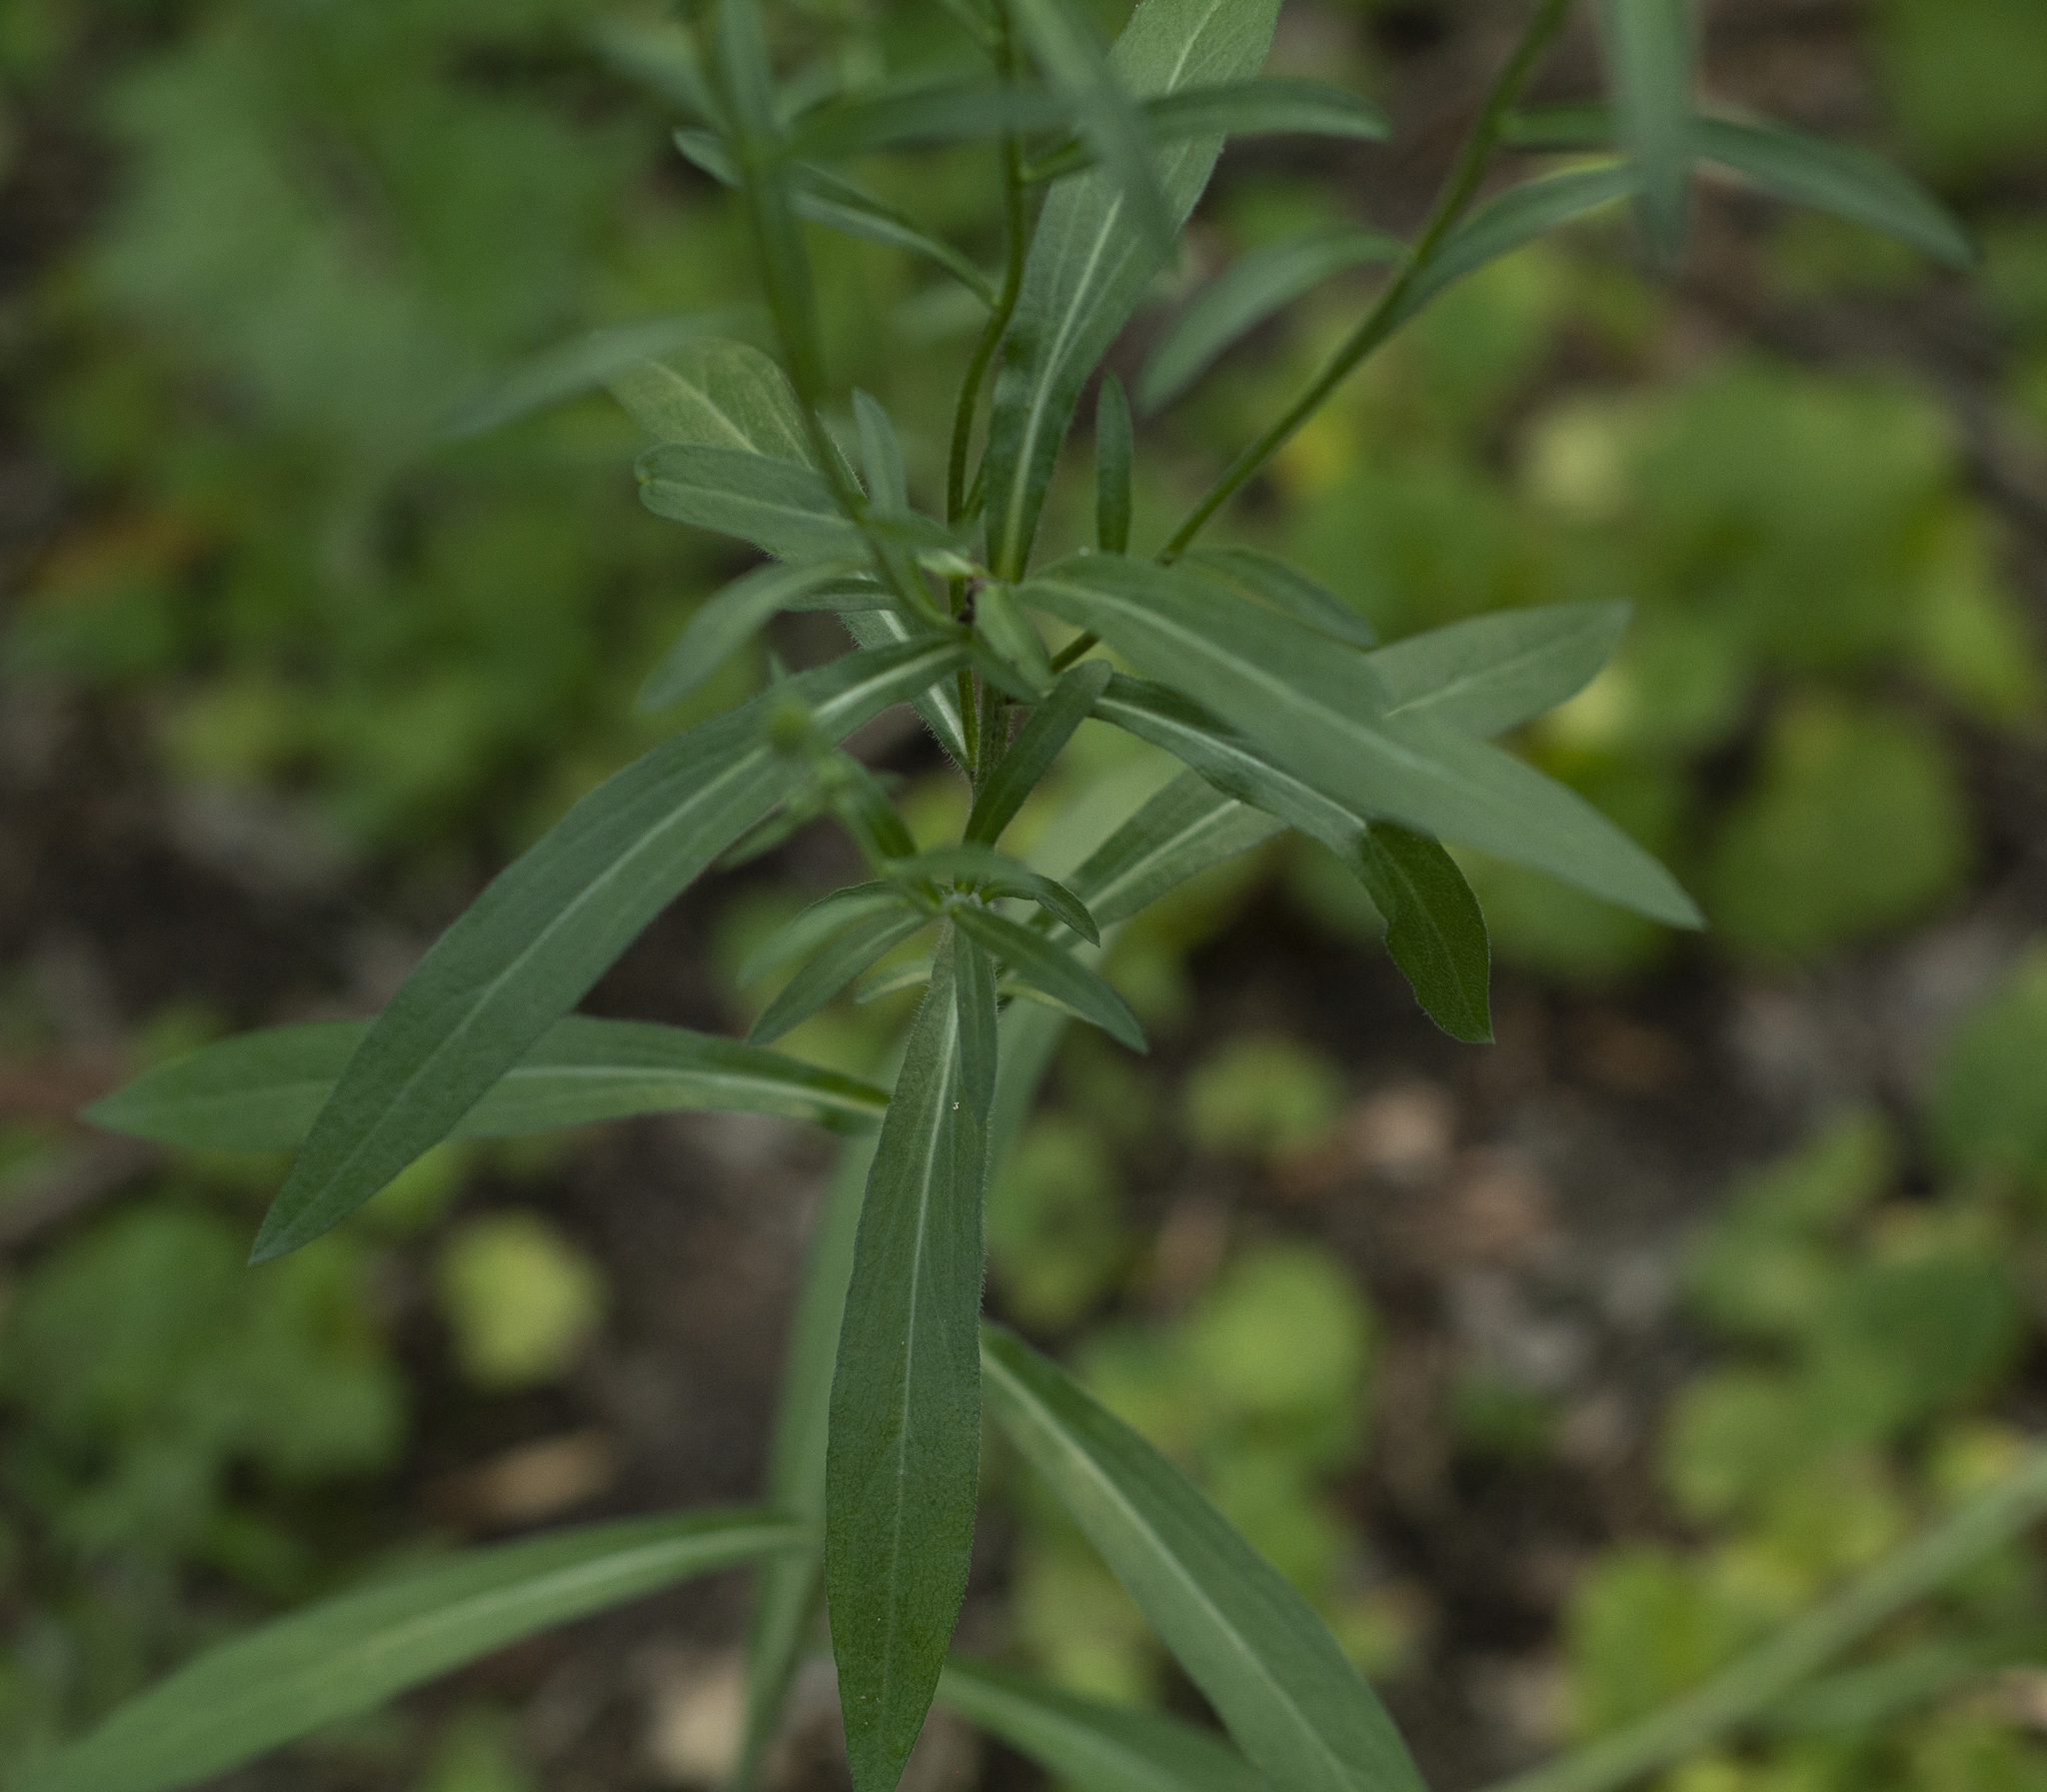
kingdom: Plantae
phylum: Tracheophyta
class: Magnoliopsida
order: Asterales
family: Asteraceae
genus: Erigeron
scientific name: Erigeron acris
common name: Blue fleabane
